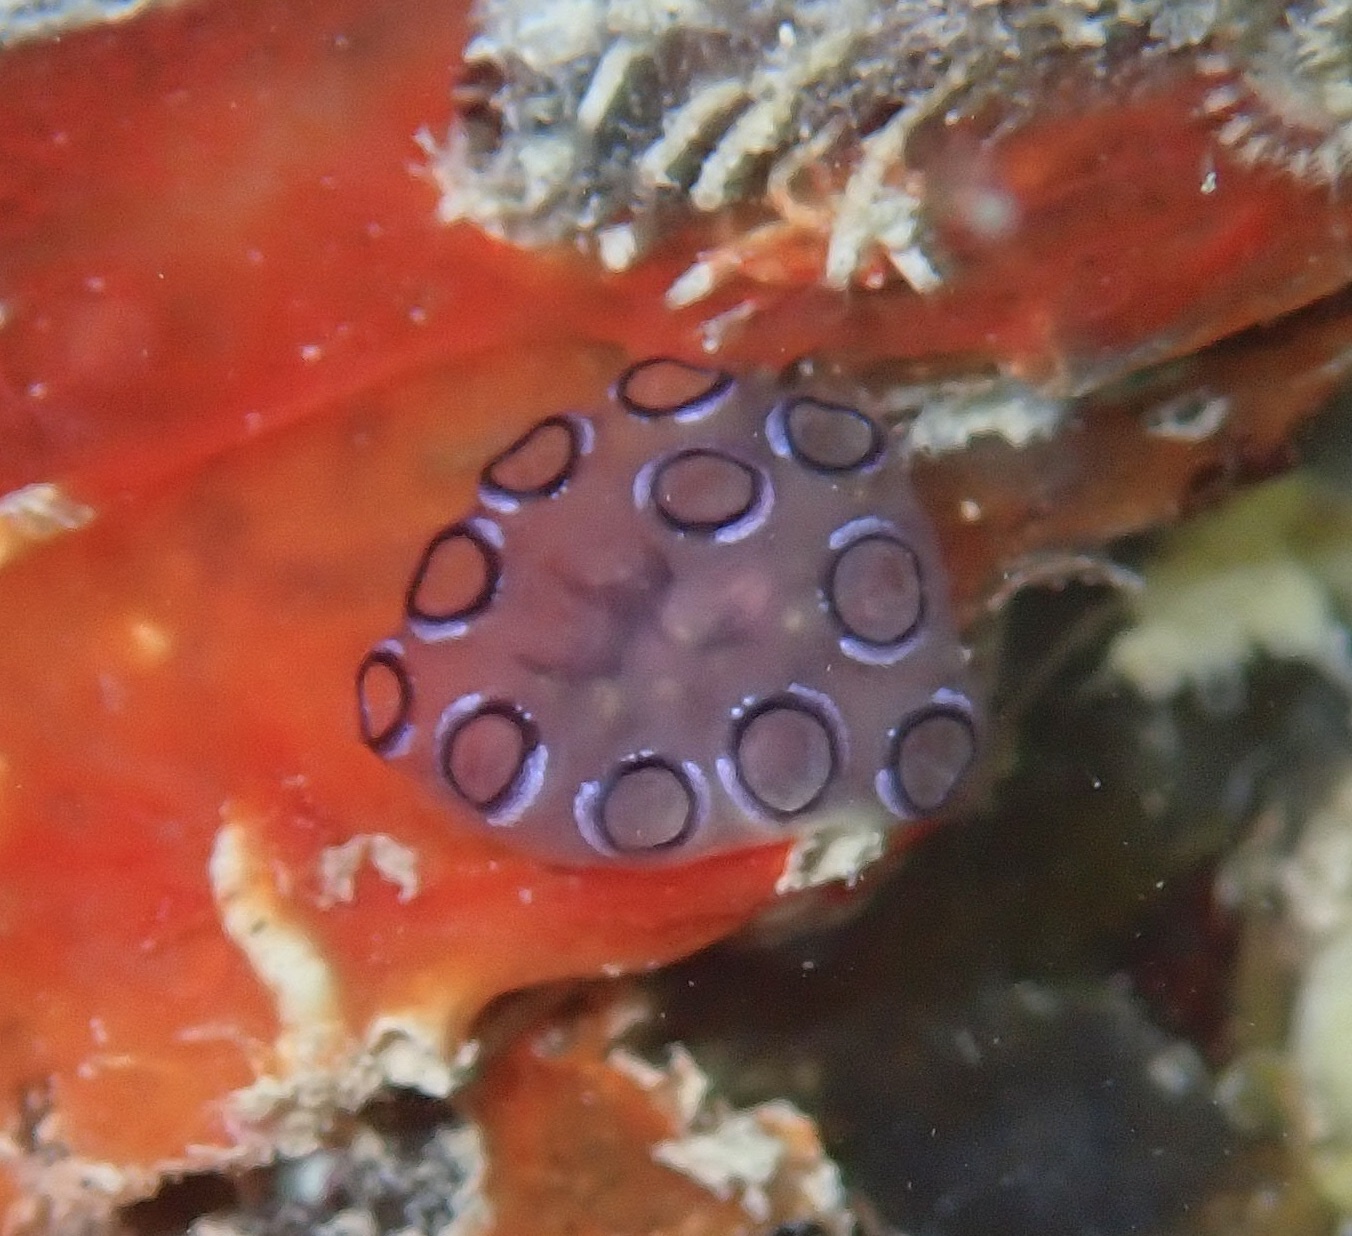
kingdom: Animalia
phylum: Chordata
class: Ascidiacea
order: Aplousobranchia
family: Holozoidae
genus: Distaplia
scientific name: Distaplia bermudensis
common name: Mottled encrusting tunicate
